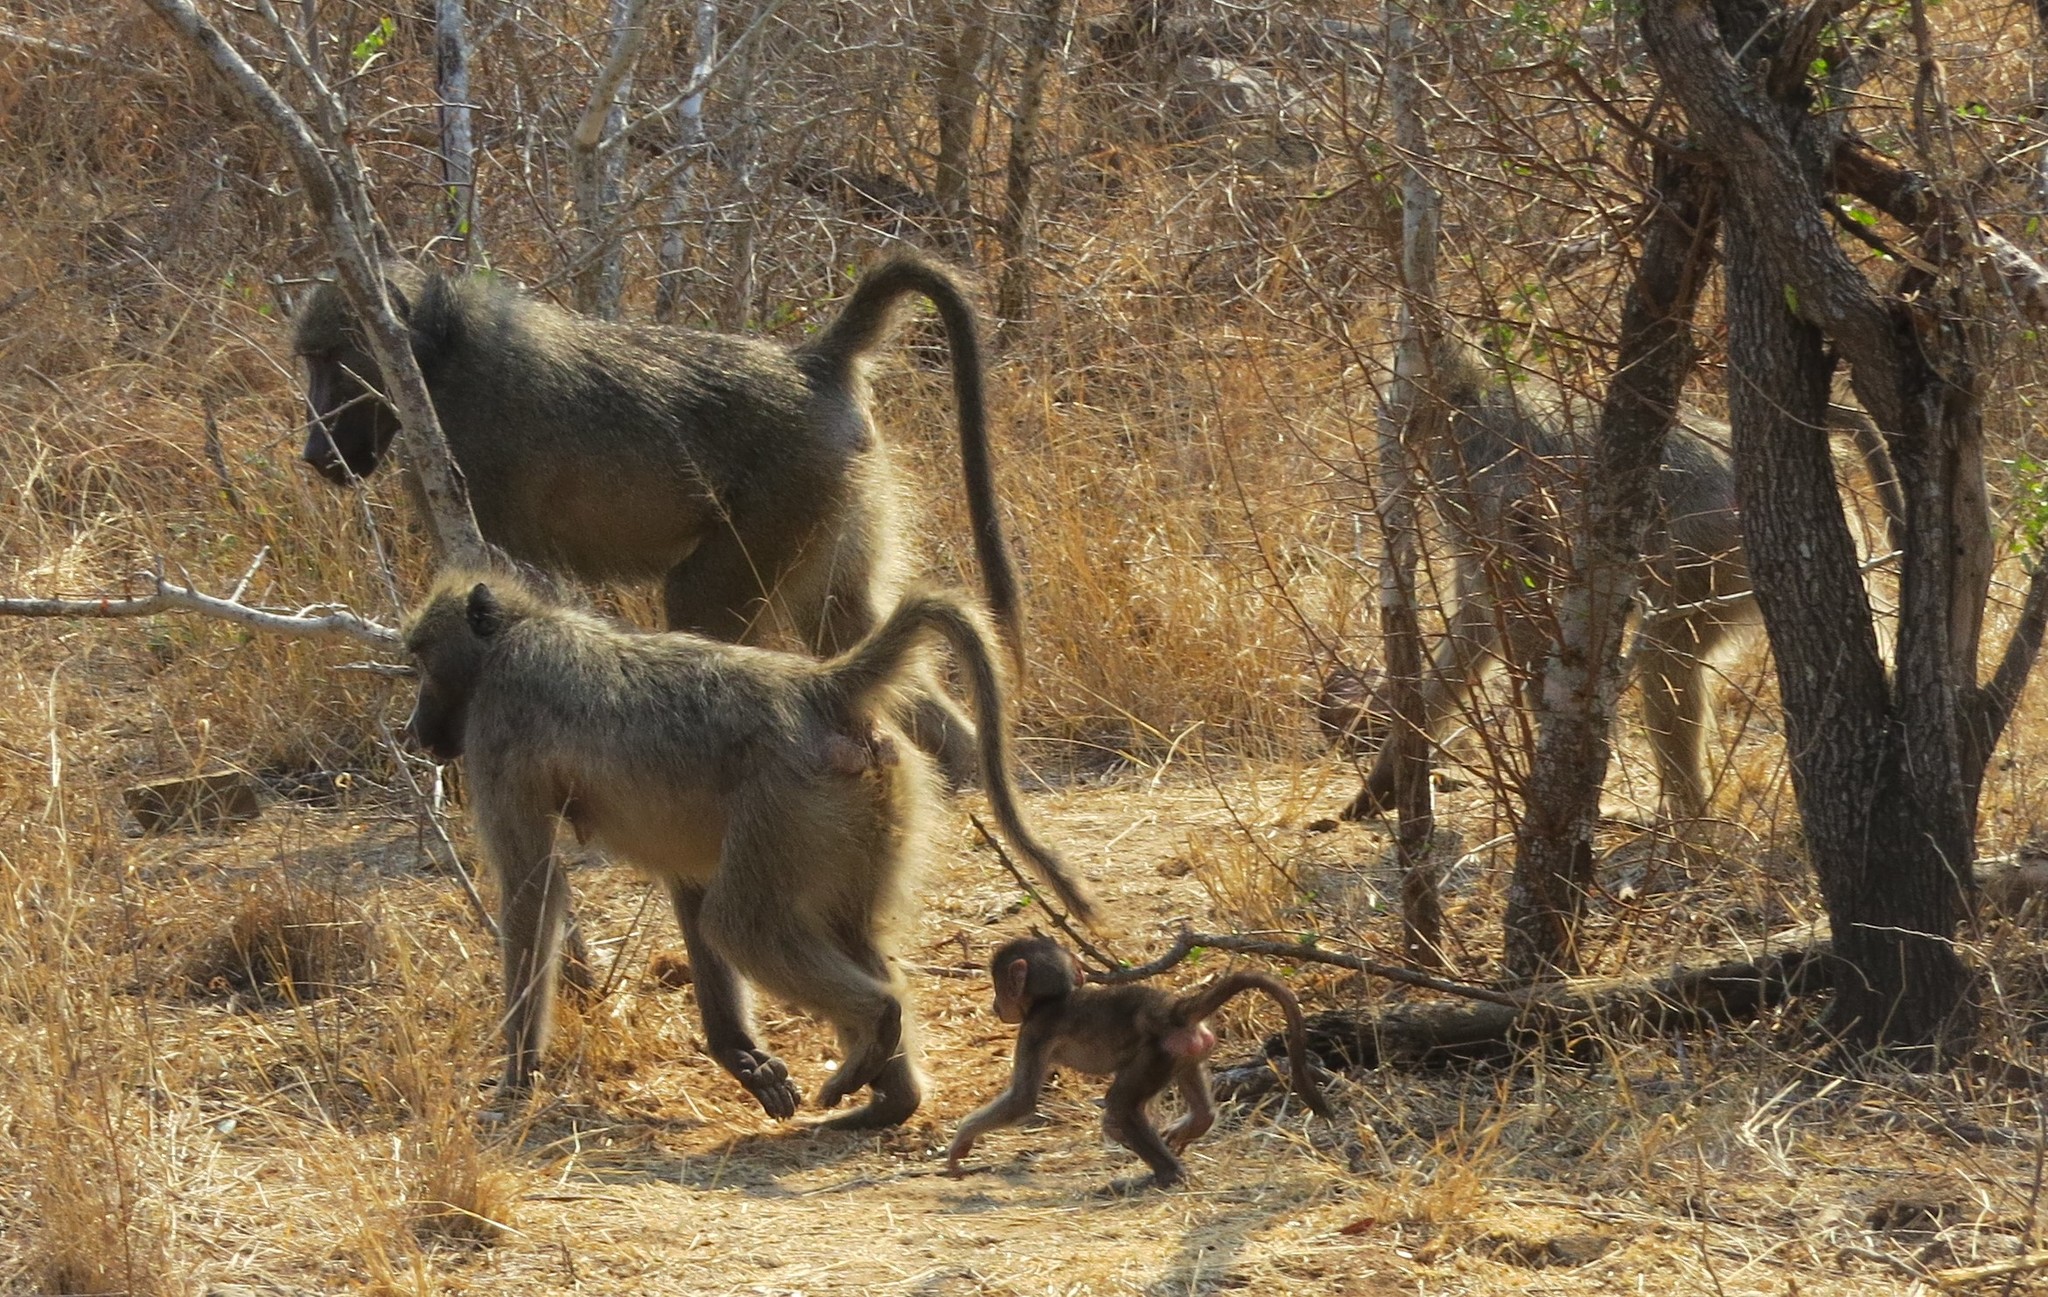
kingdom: Animalia
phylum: Chordata
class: Mammalia
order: Primates
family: Cercopithecidae
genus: Papio
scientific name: Papio ursinus
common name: Chacma baboon
